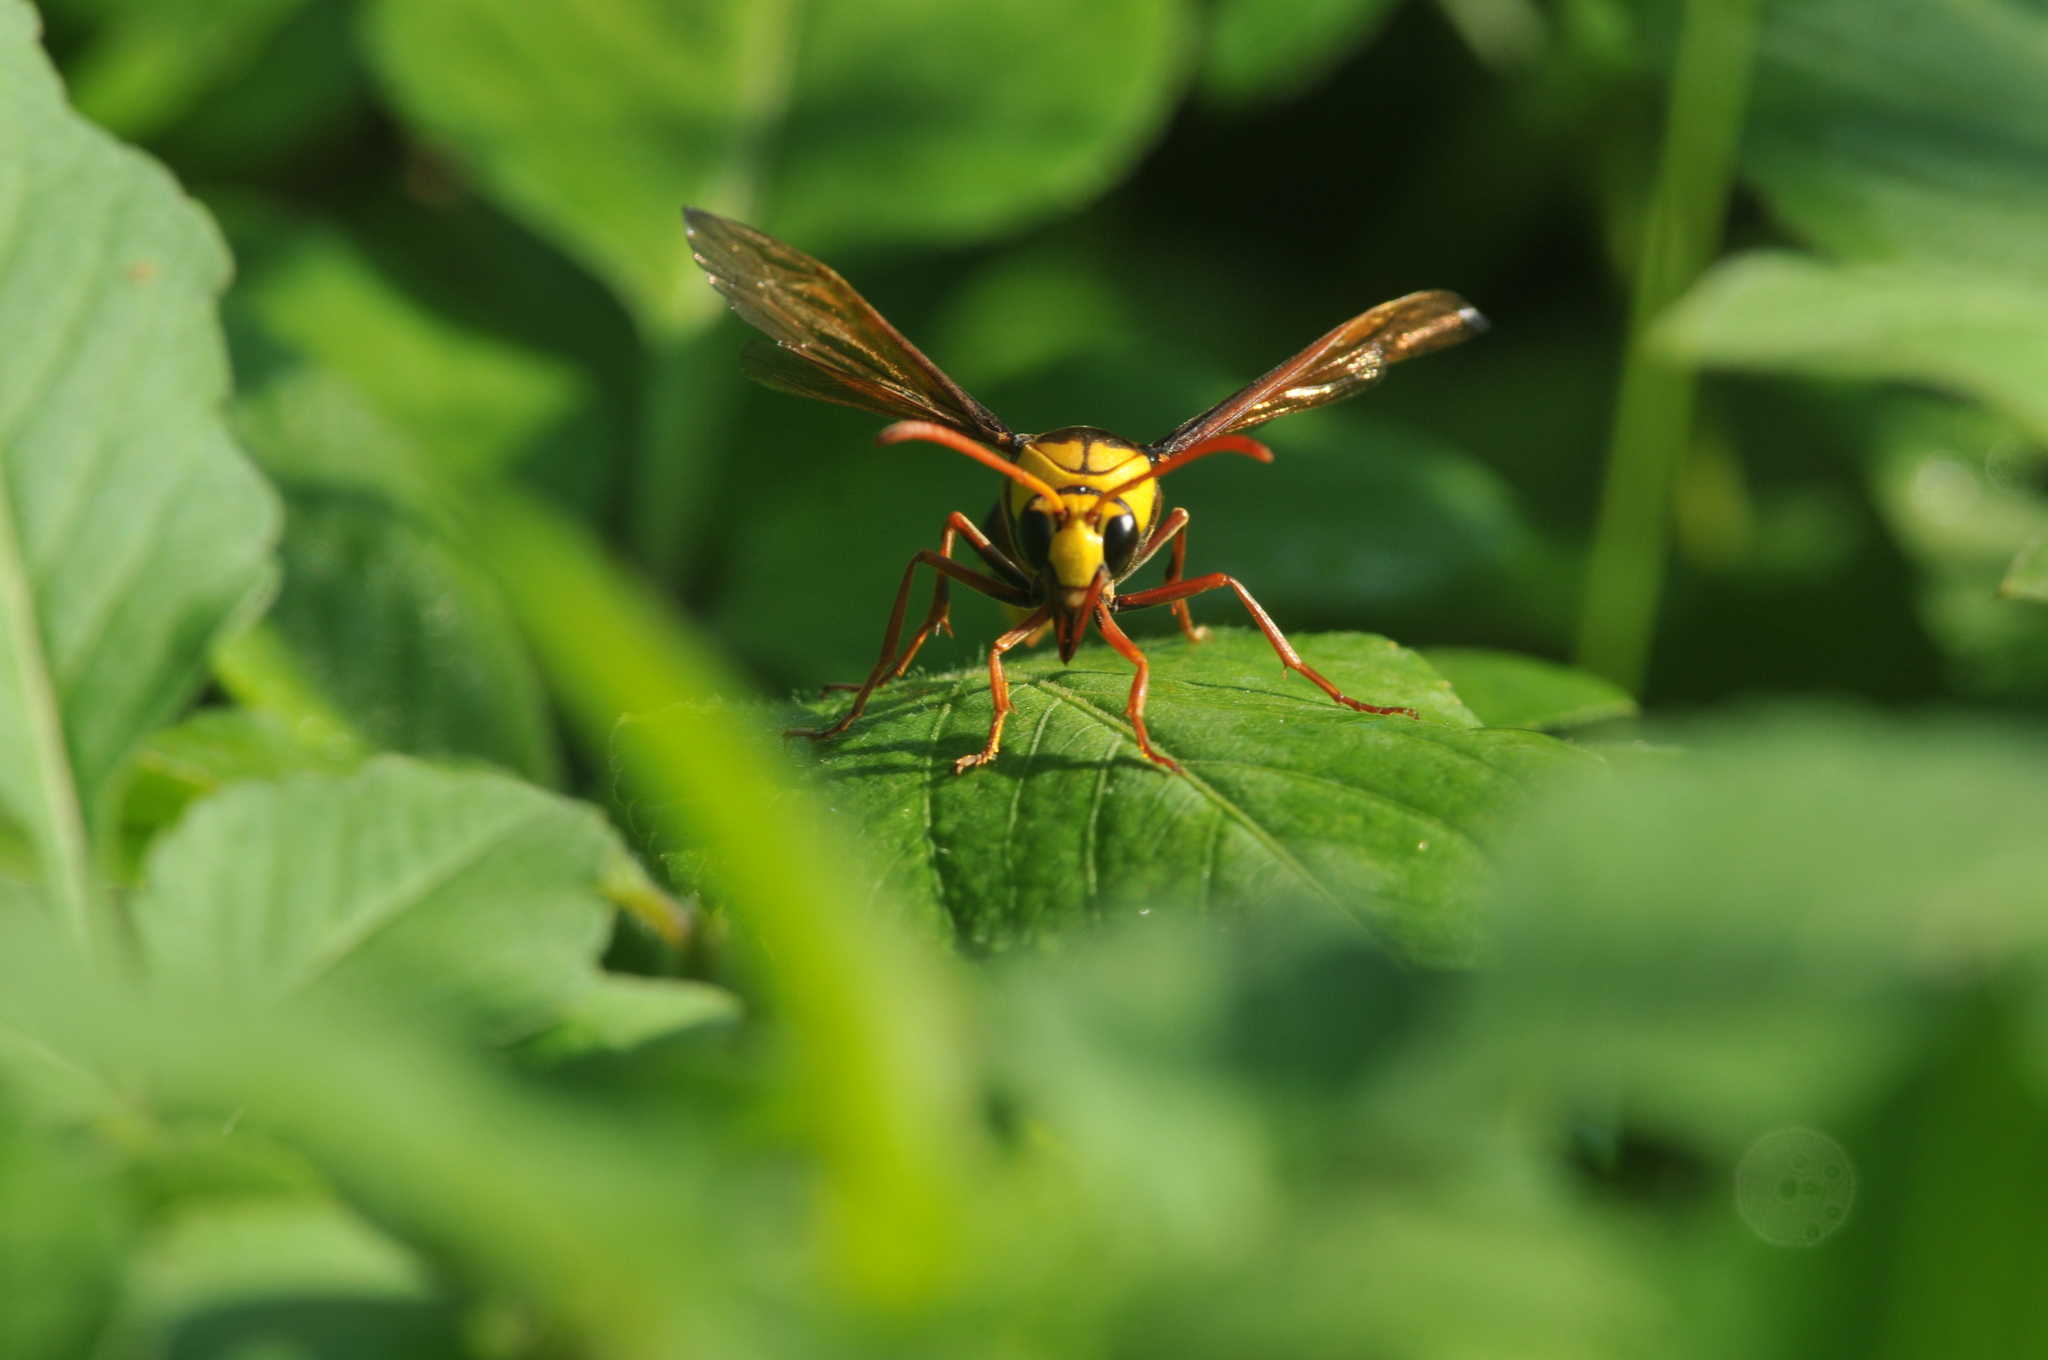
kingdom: Animalia
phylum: Arthropoda
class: Insecta
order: Hymenoptera
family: Eumenidae
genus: Delta
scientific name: Delta pyriforme
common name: Wasp
